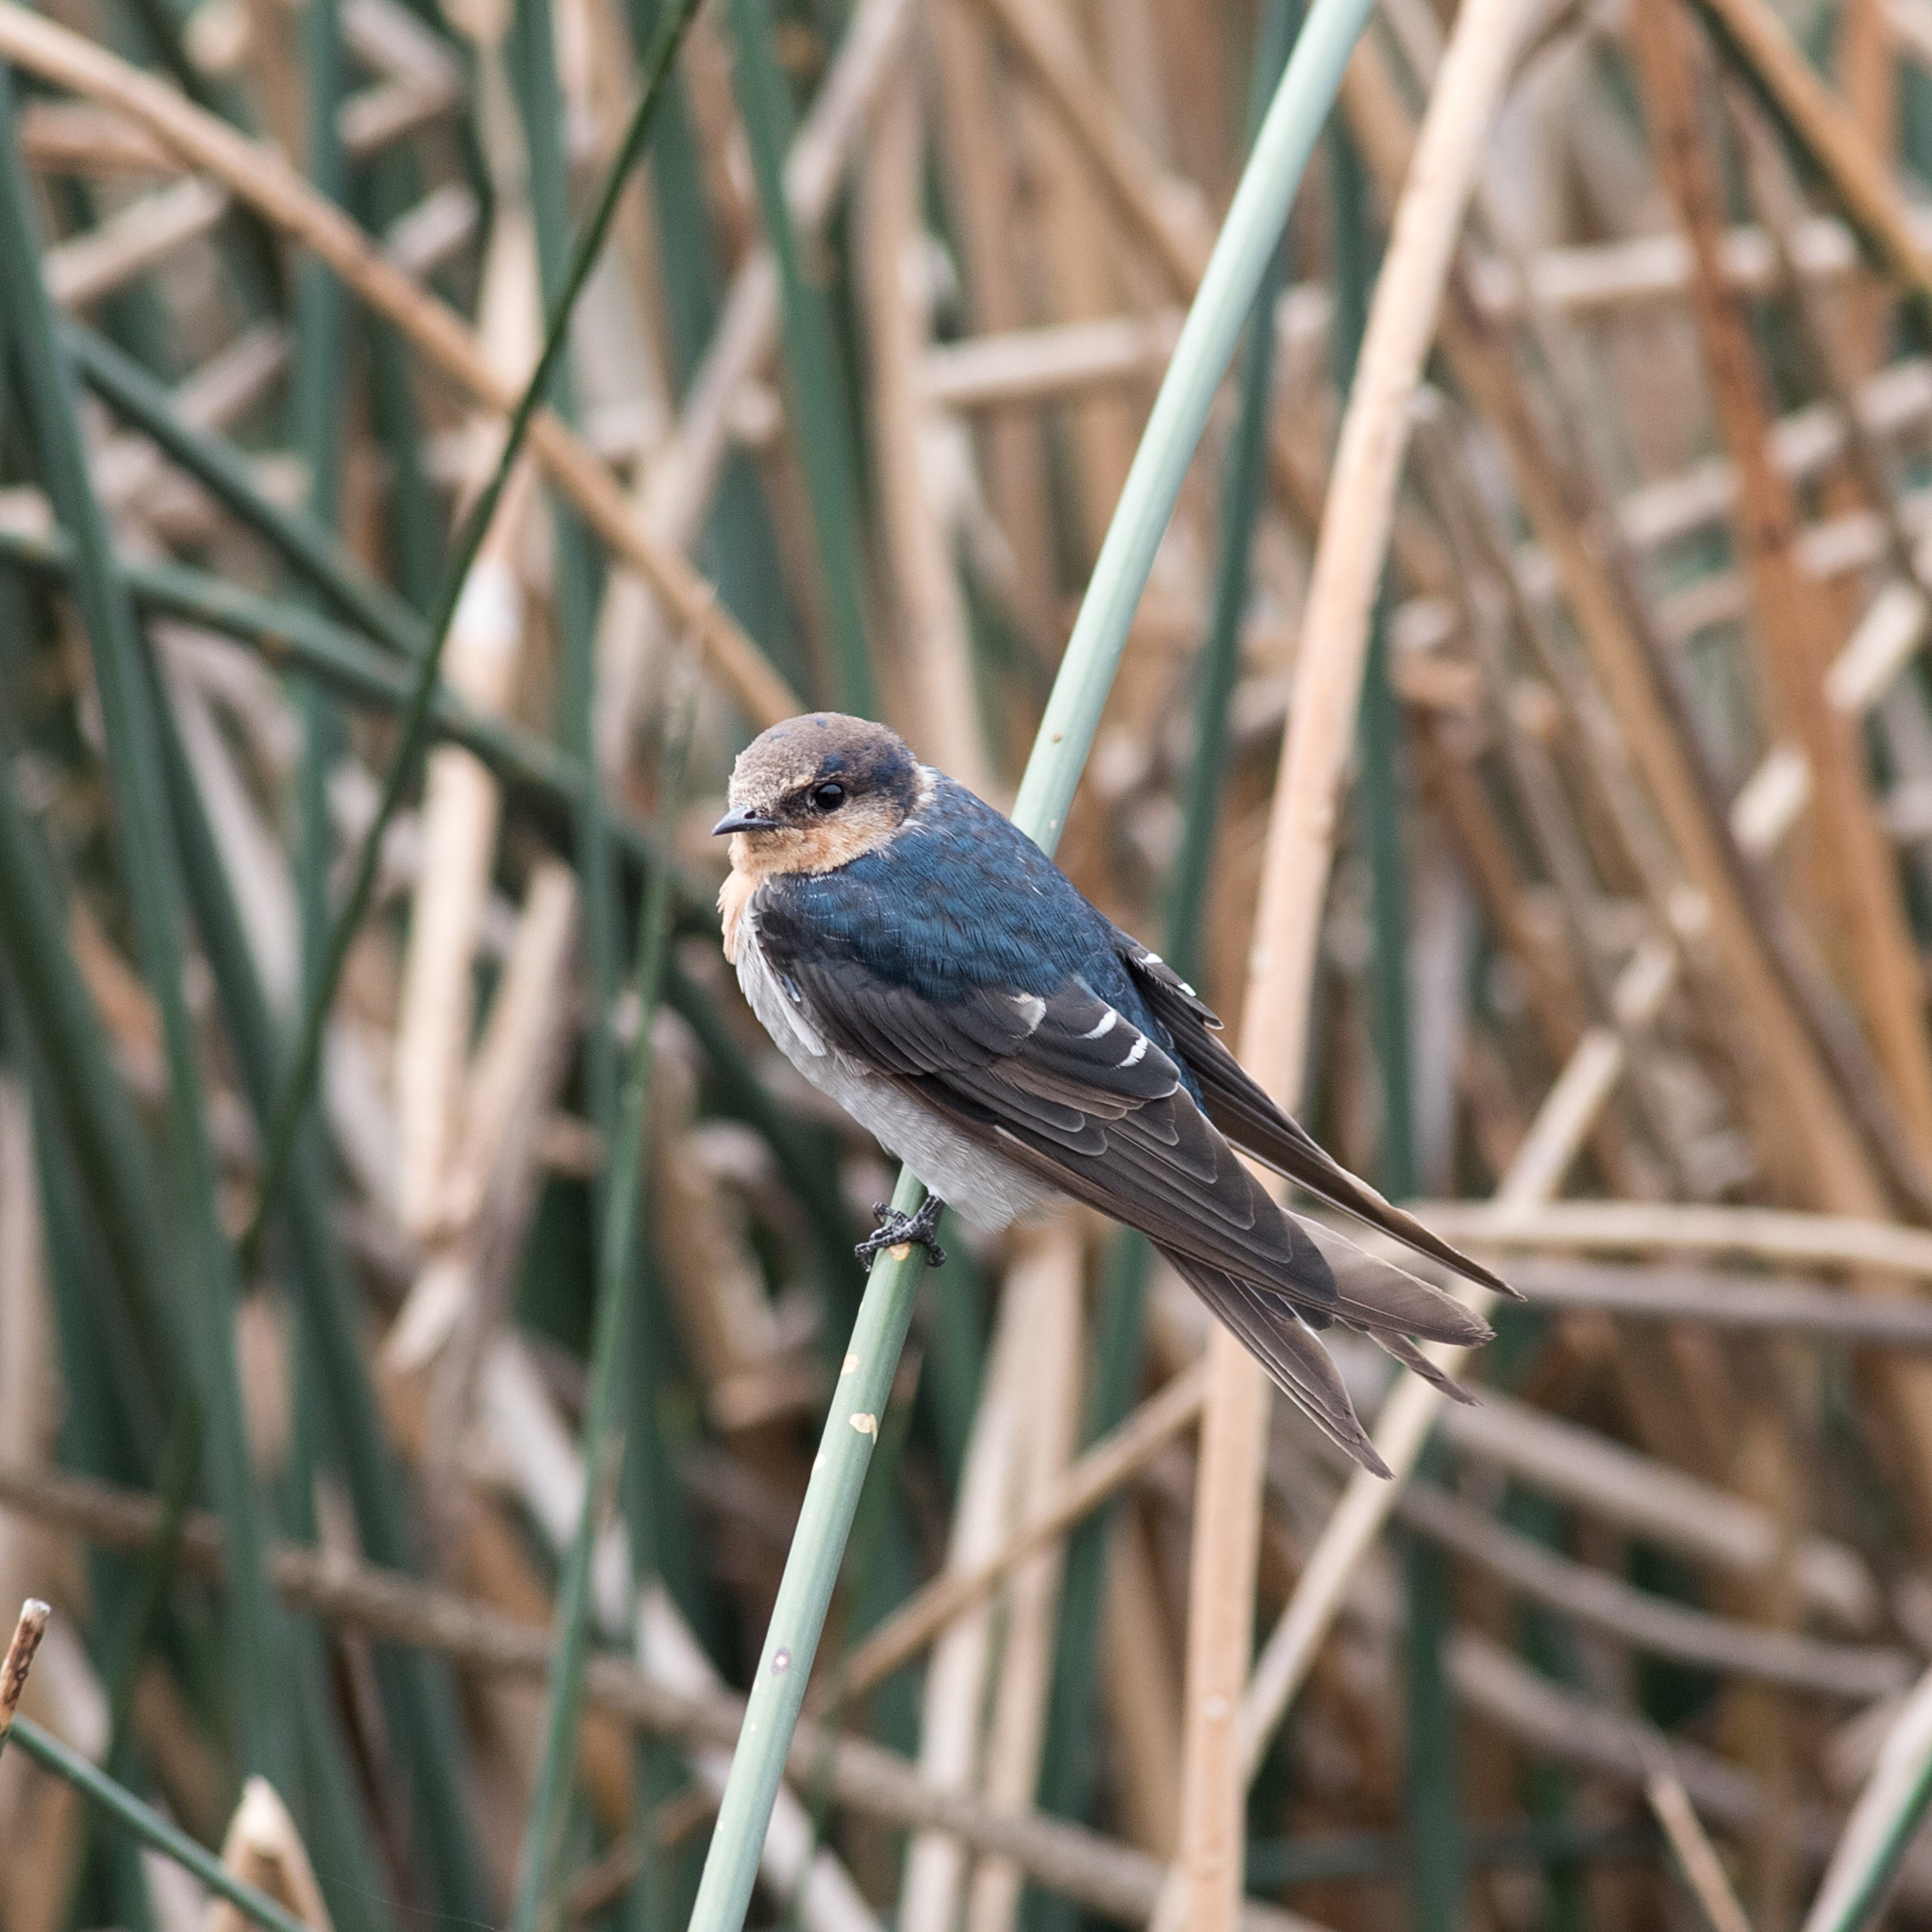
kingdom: Animalia
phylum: Chordata
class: Aves
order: Passeriformes
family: Hirundinidae
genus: Hirundo
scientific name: Hirundo neoxena
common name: Welcome swallow
